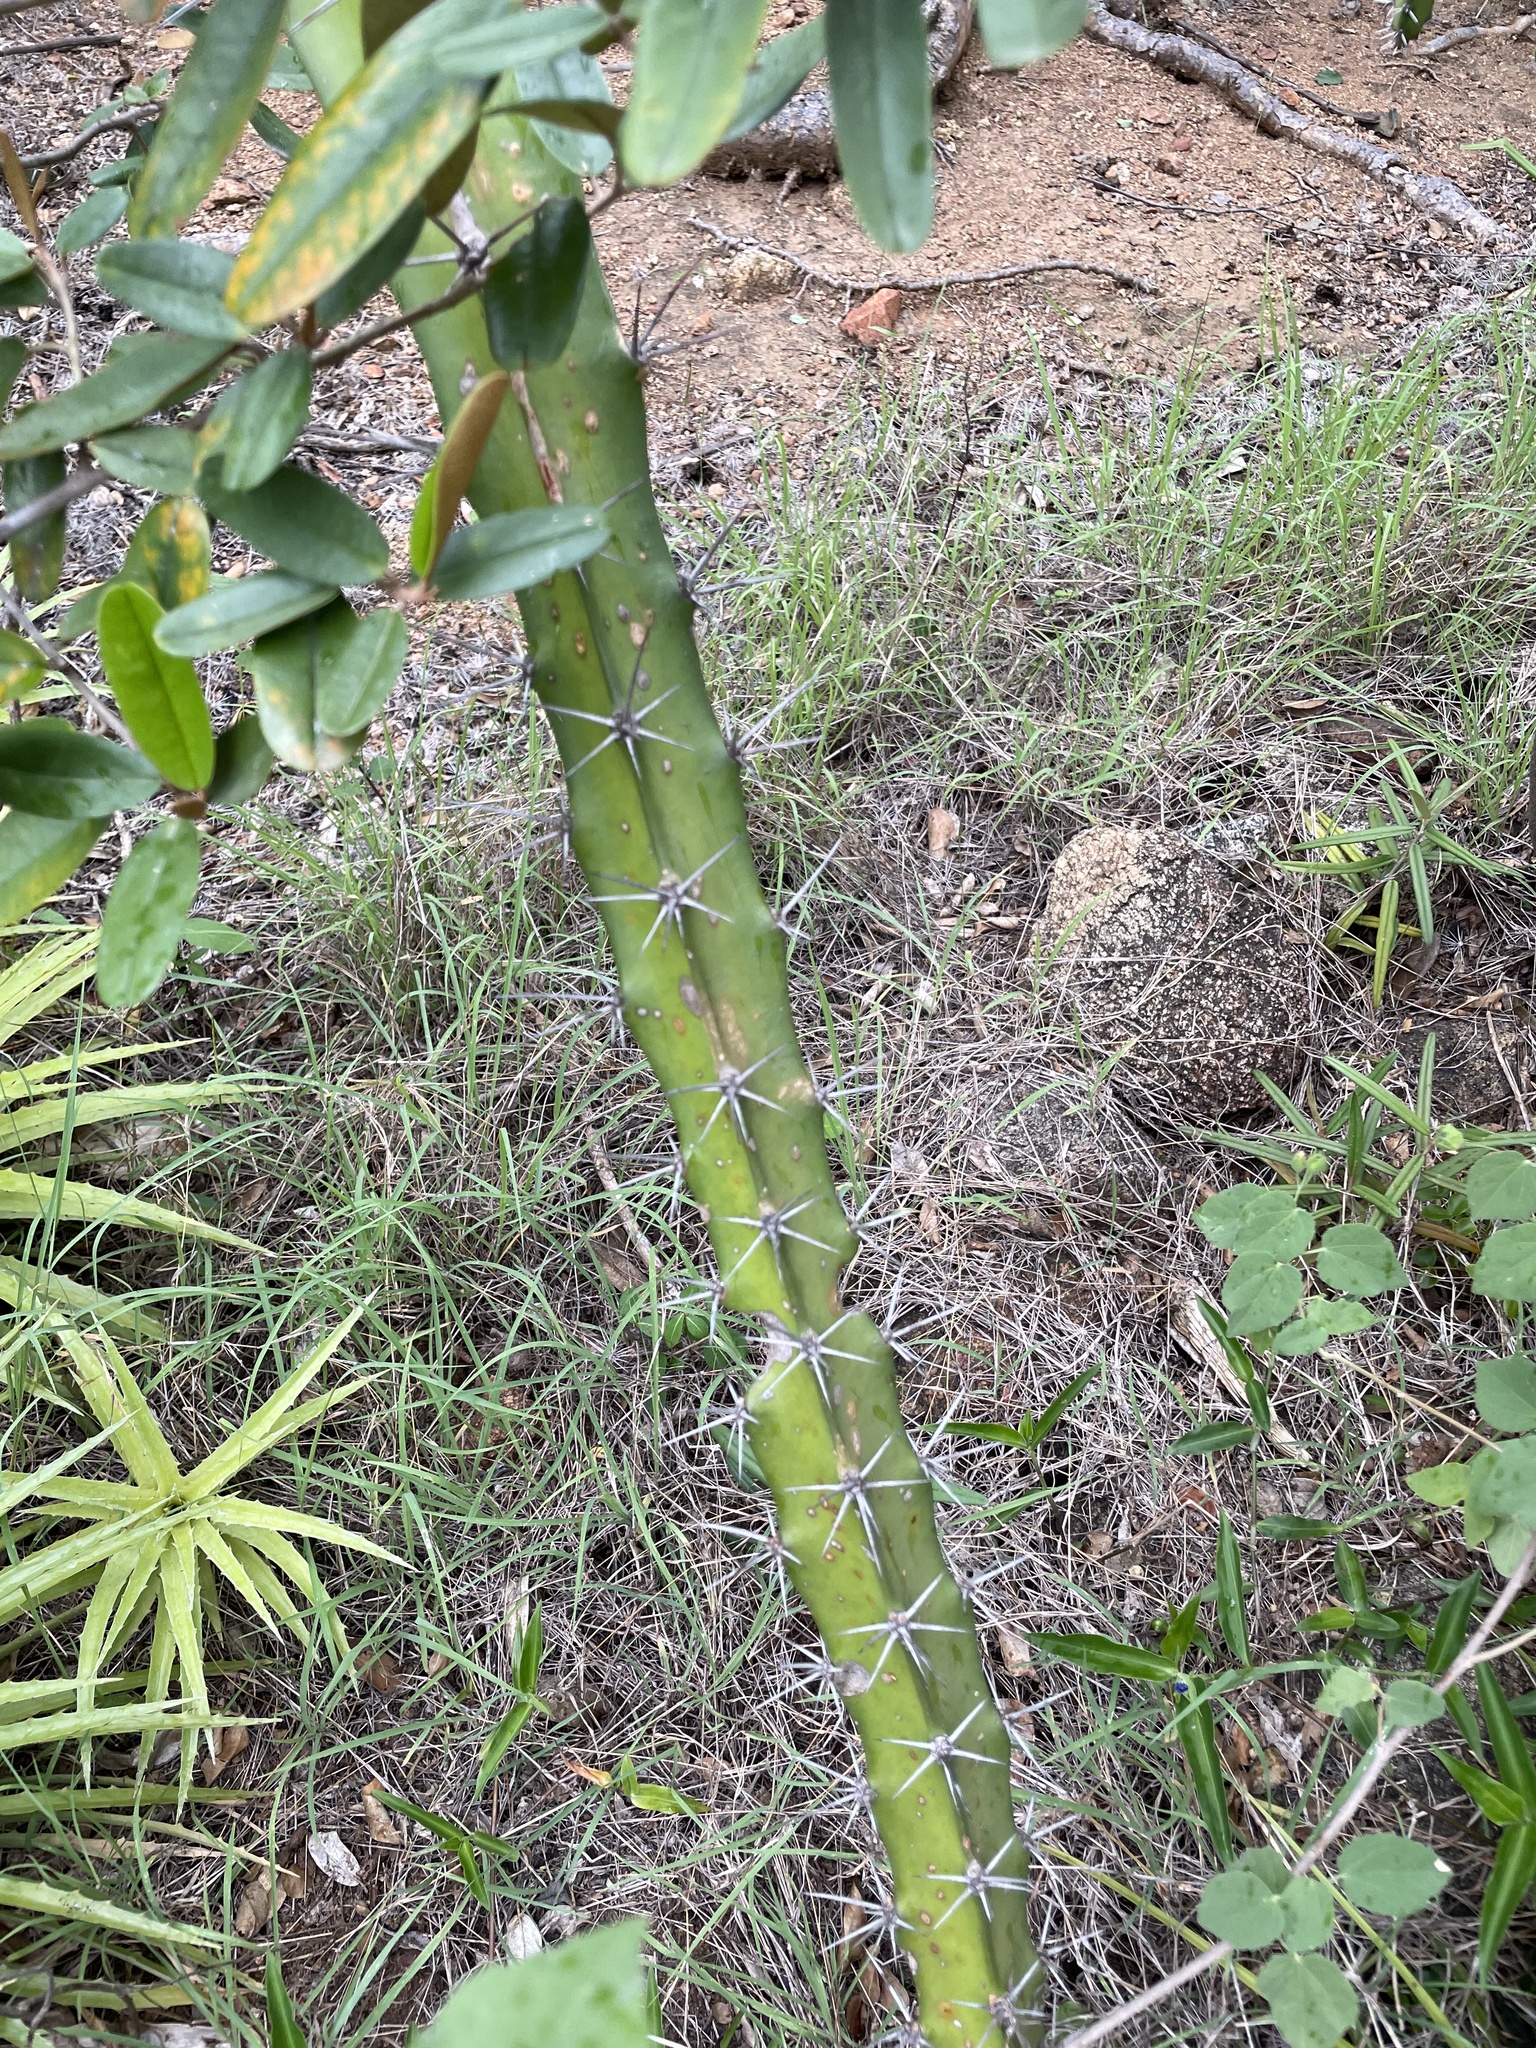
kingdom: Plantae
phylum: Tracheophyta
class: Magnoliopsida
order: Caryophyllales
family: Cactaceae
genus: Acanthocereus
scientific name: Acanthocereus tetragonus
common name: Triangle cactus
